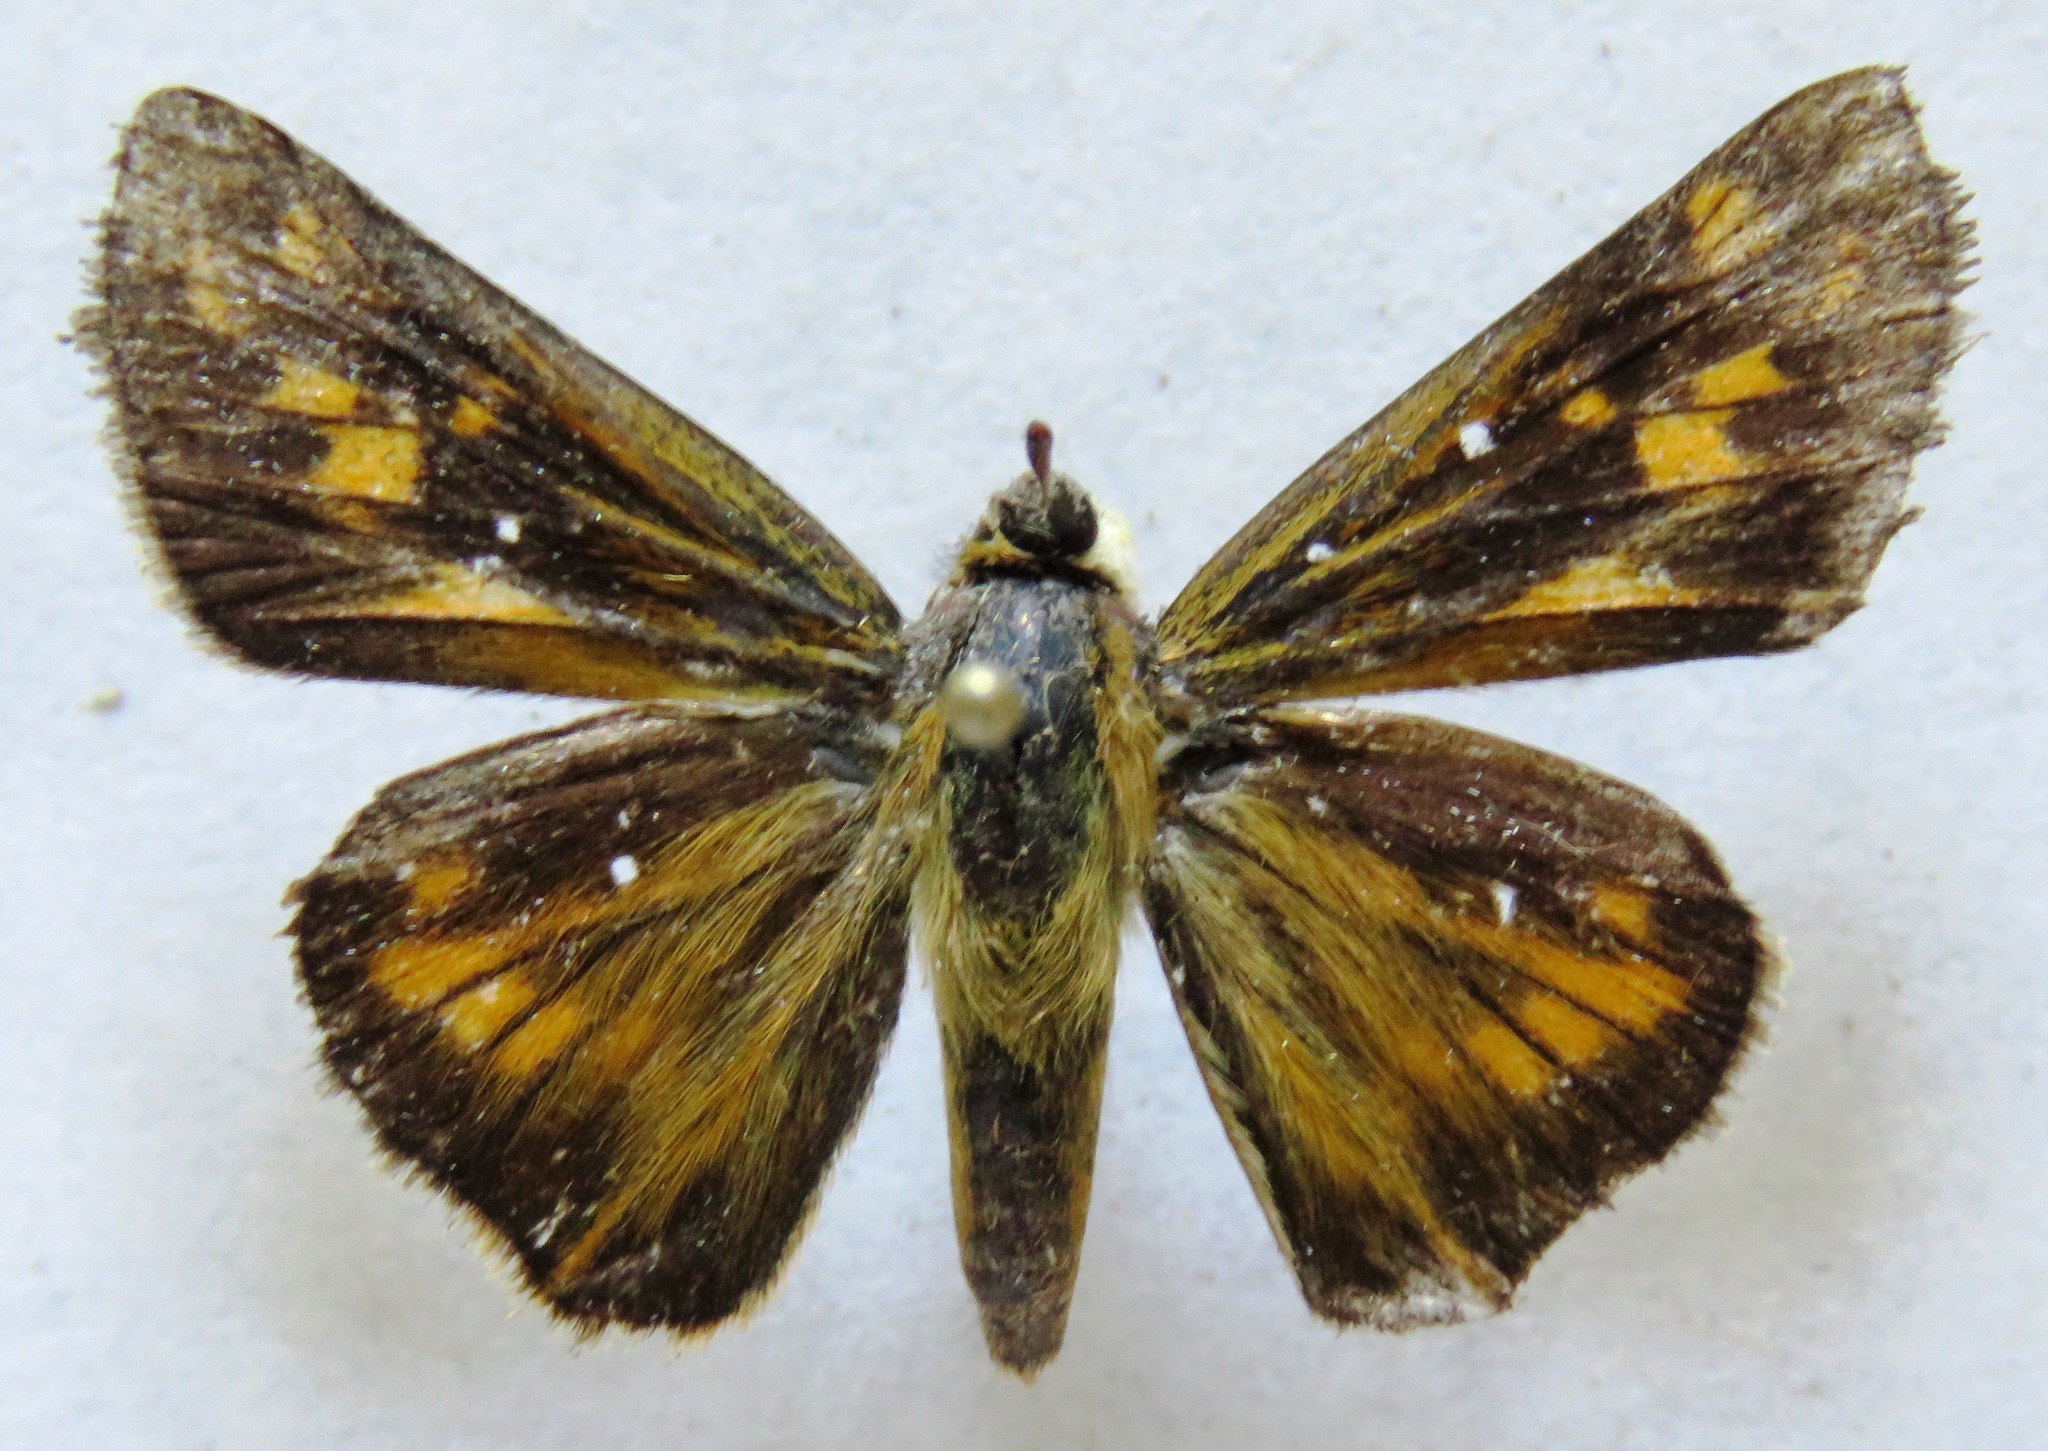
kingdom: Animalia
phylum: Arthropoda
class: Insecta
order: Lepidoptera
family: Hesperiidae
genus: Hylephila
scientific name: Hylephila phyleus
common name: Fiery skipper
